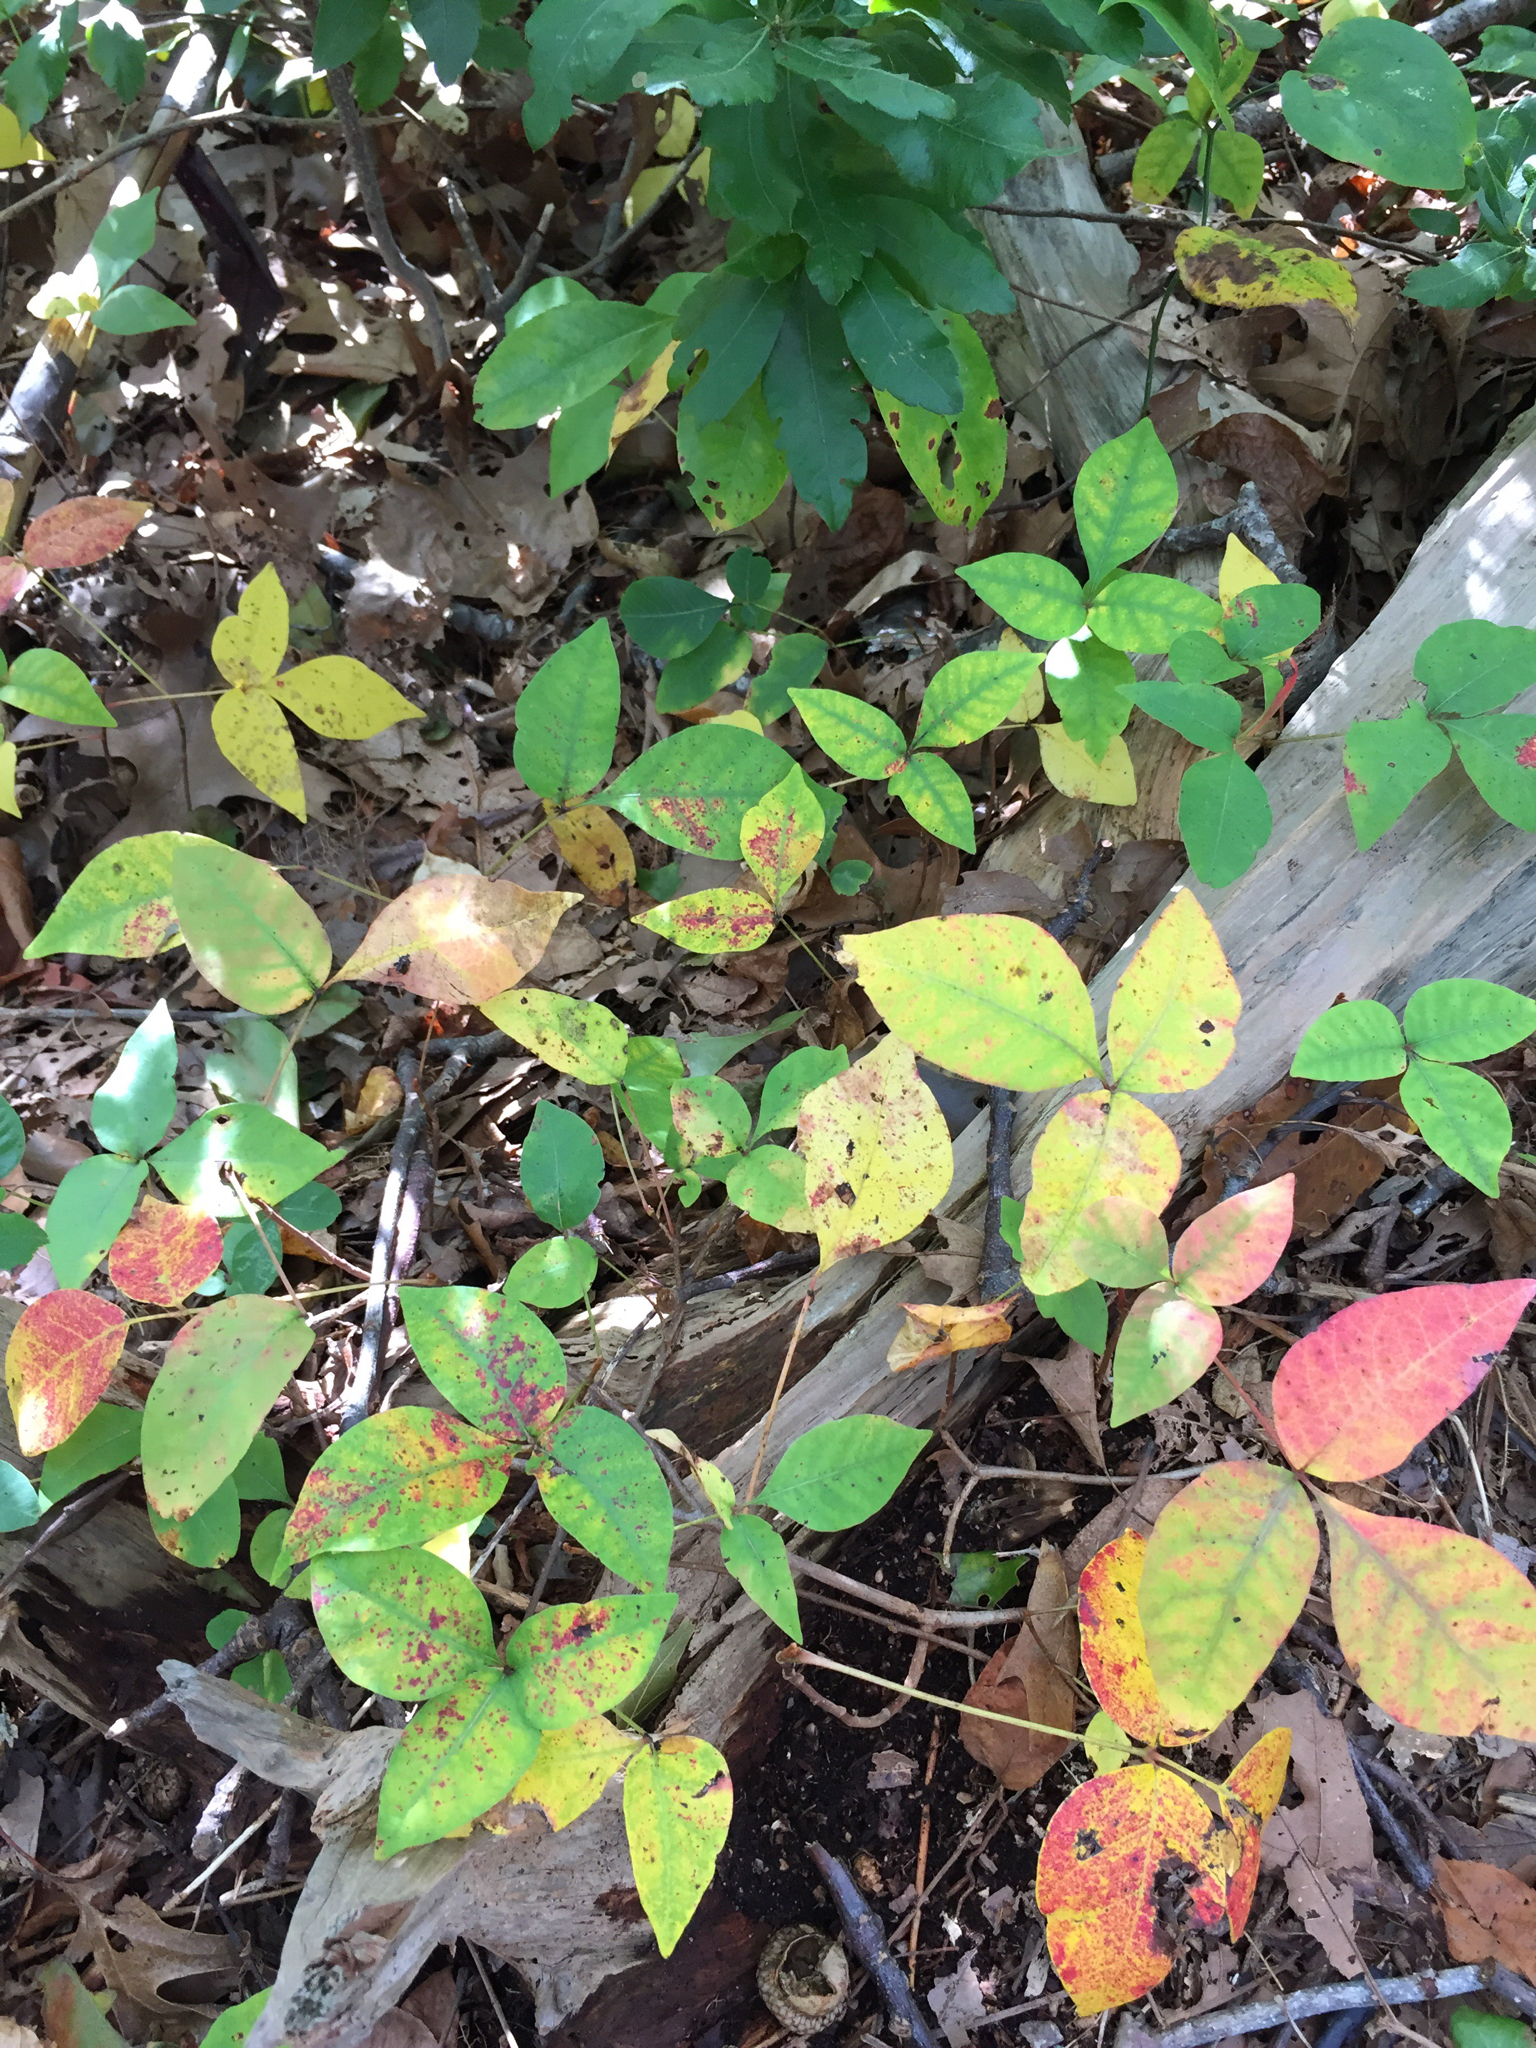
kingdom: Plantae
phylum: Tracheophyta
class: Magnoliopsida
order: Sapindales
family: Anacardiaceae
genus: Toxicodendron
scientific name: Toxicodendron radicans
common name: Poison ivy
